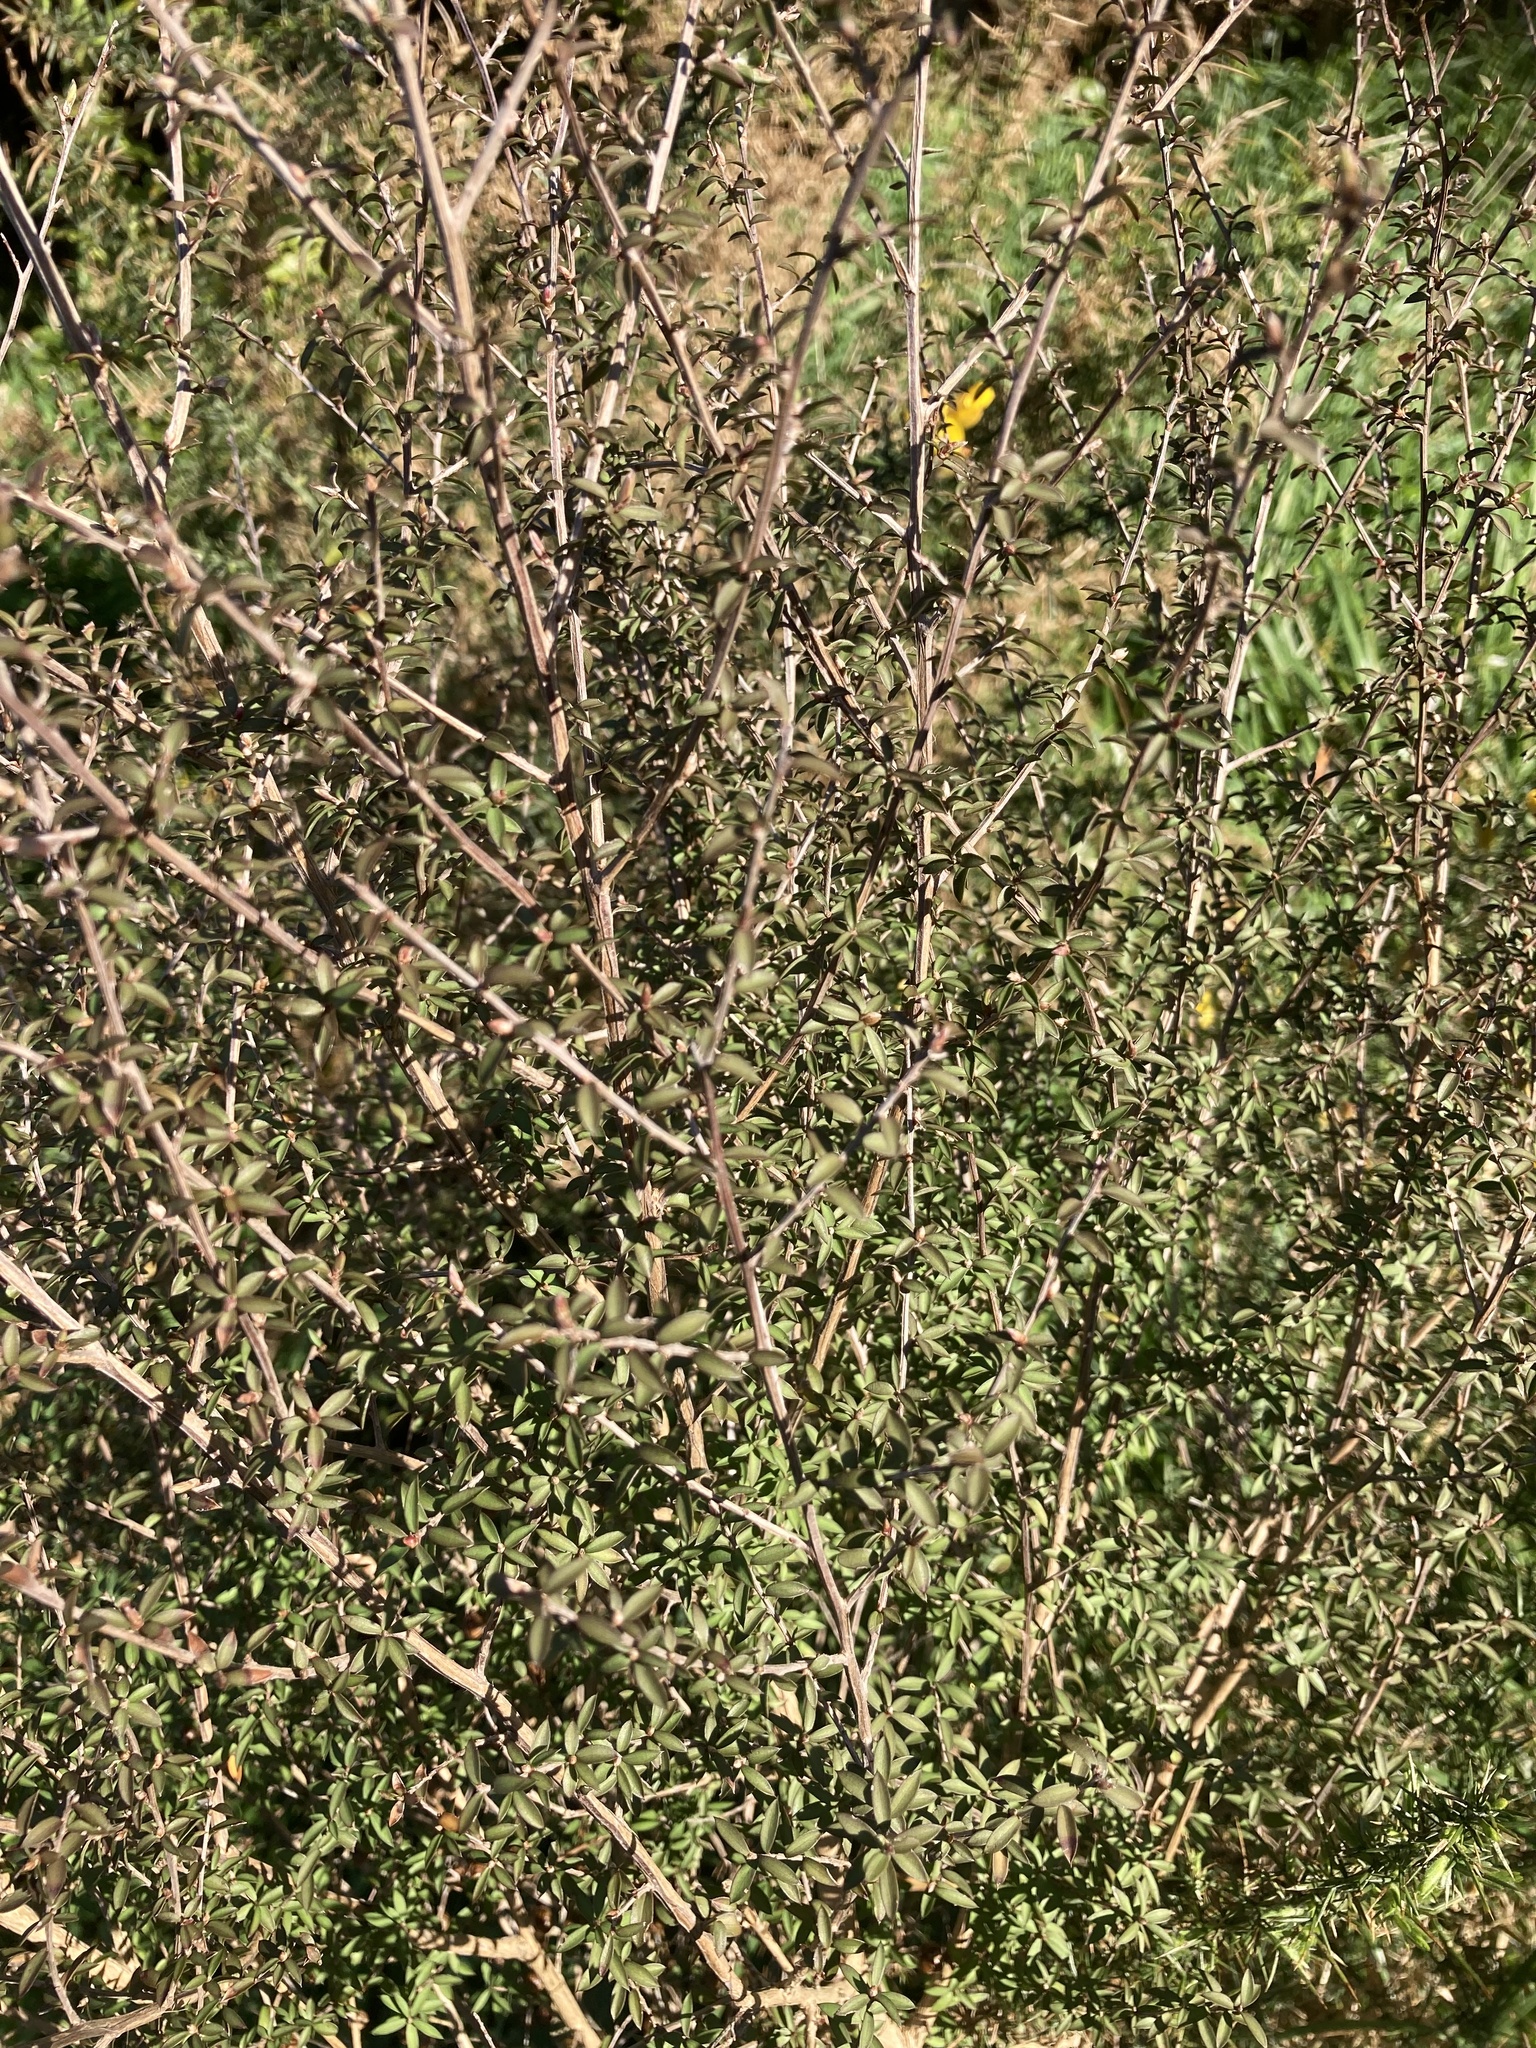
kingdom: Plantae
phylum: Tracheophyta
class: Magnoliopsida
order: Myrtales
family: Myrtaceae
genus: Leptospermum
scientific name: Leptospermum scoparium
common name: Broom tea-tree
